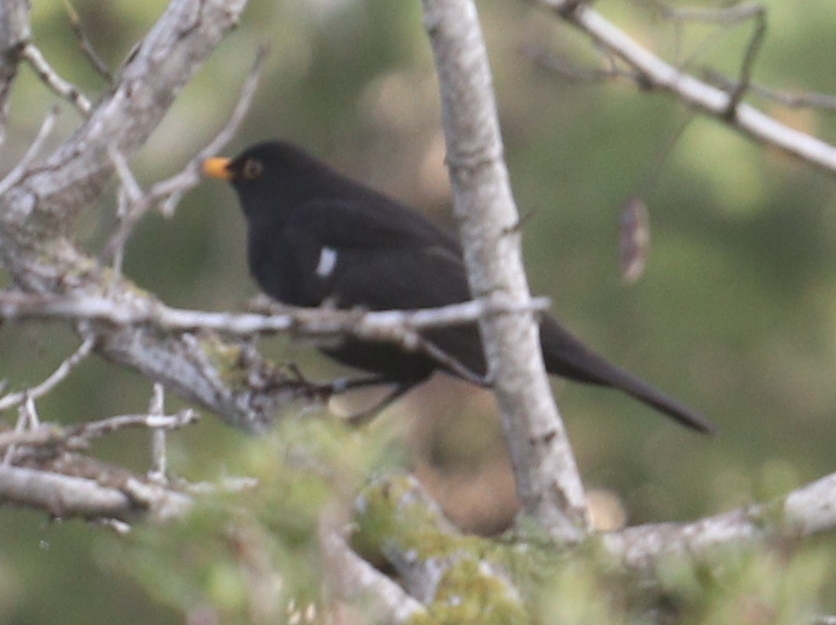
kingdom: Animalia
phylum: Chordata
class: Aves
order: Passeriformes
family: Turdidae
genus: Turdus
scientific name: Turdus merula
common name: Common blackbird
